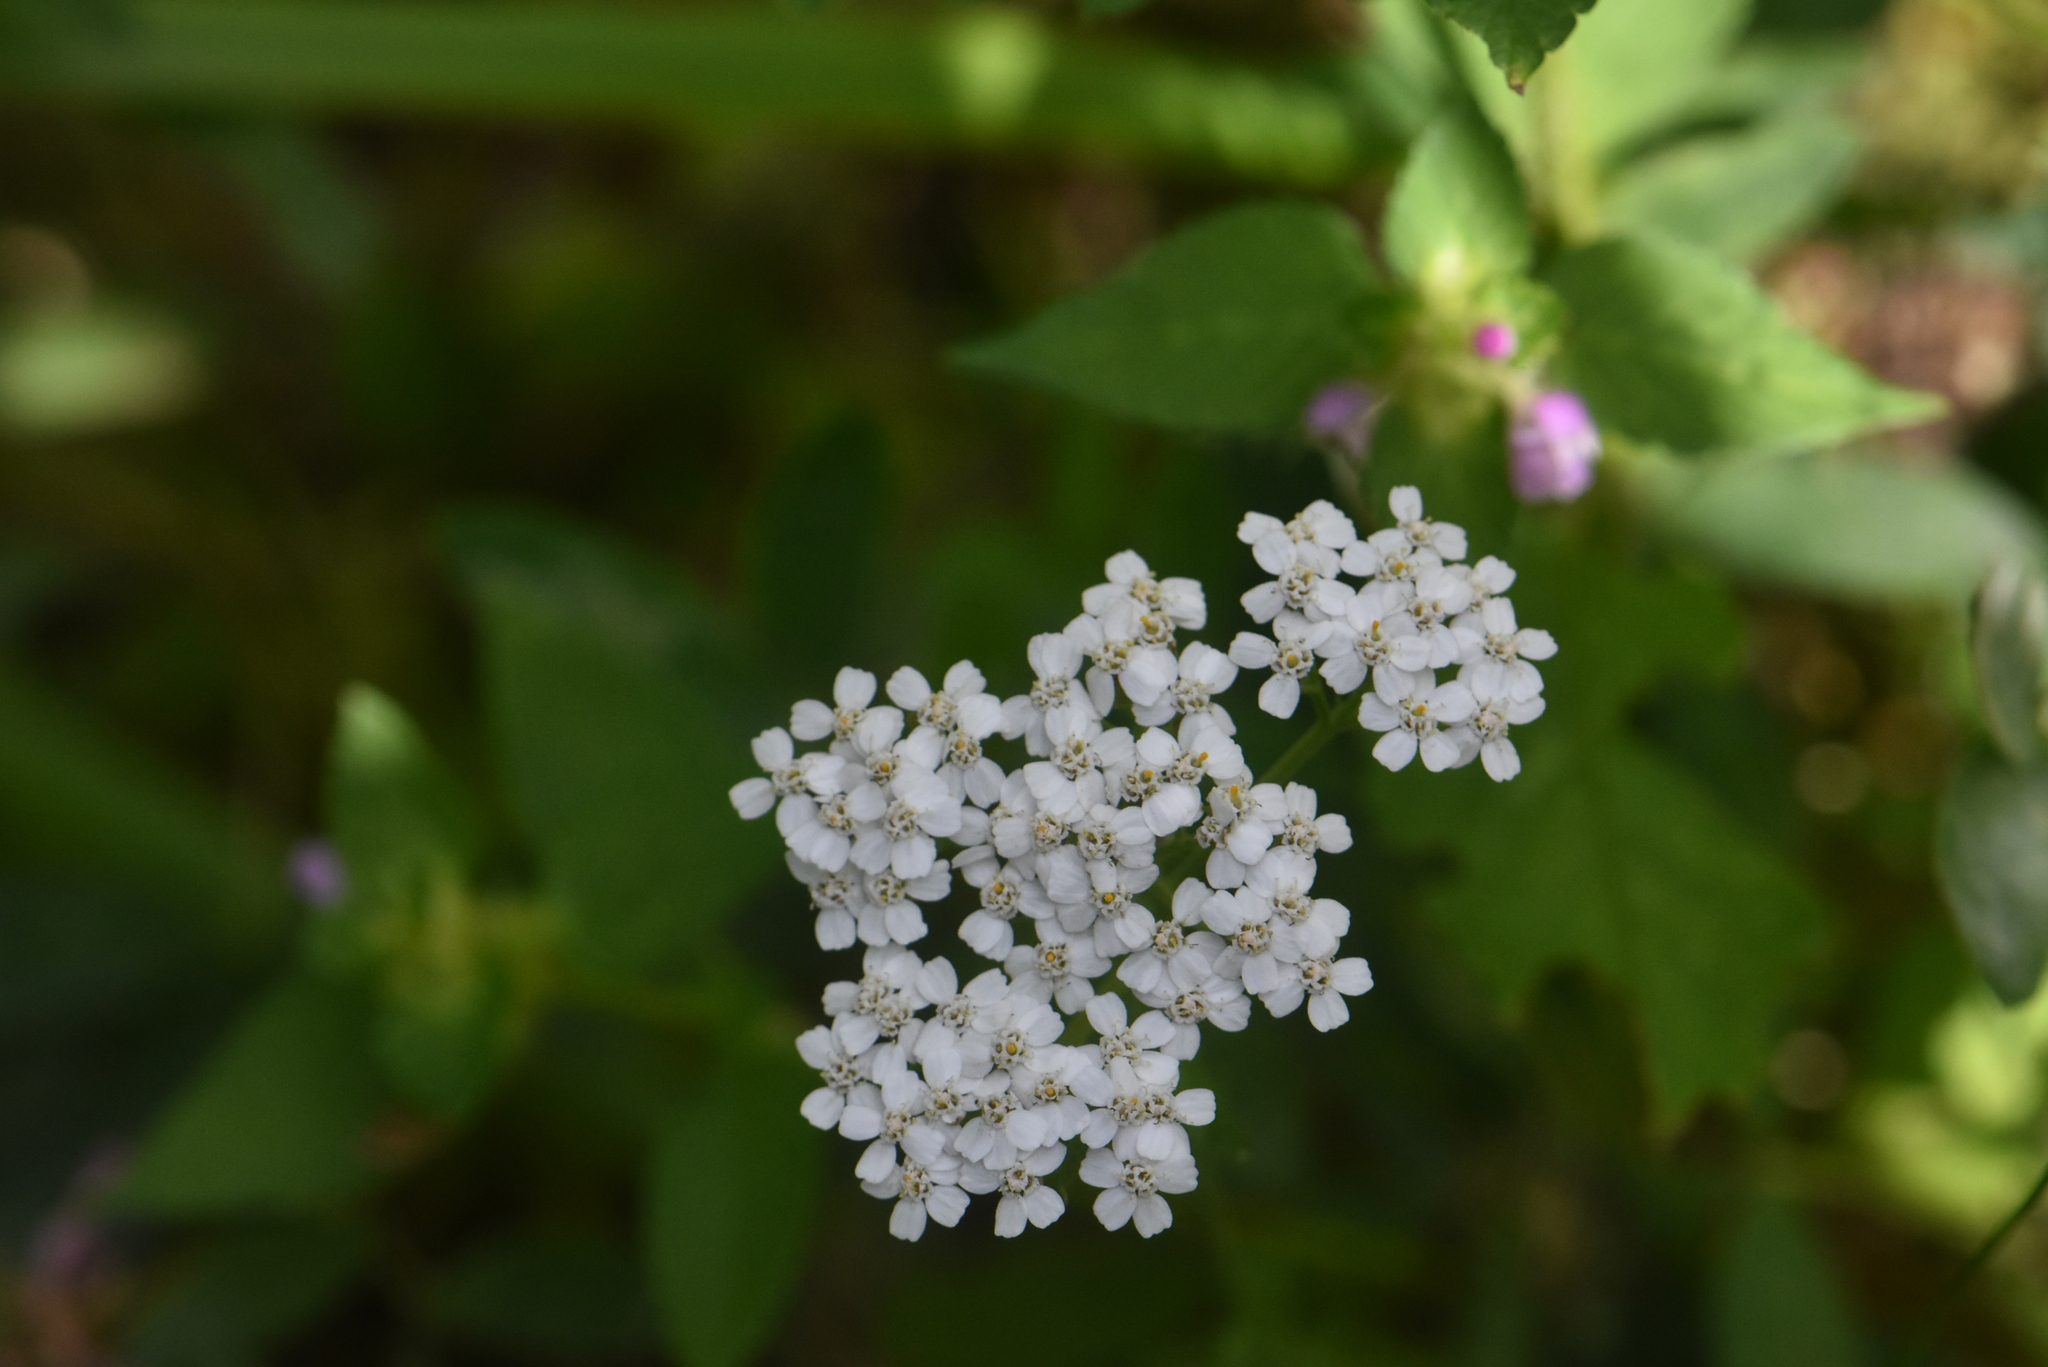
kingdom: Plantae
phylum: Tracheophyta
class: Magnoliopsida
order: Asterales
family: Asteraceae
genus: Achillea
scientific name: Achillea millefolium
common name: Yarrow
